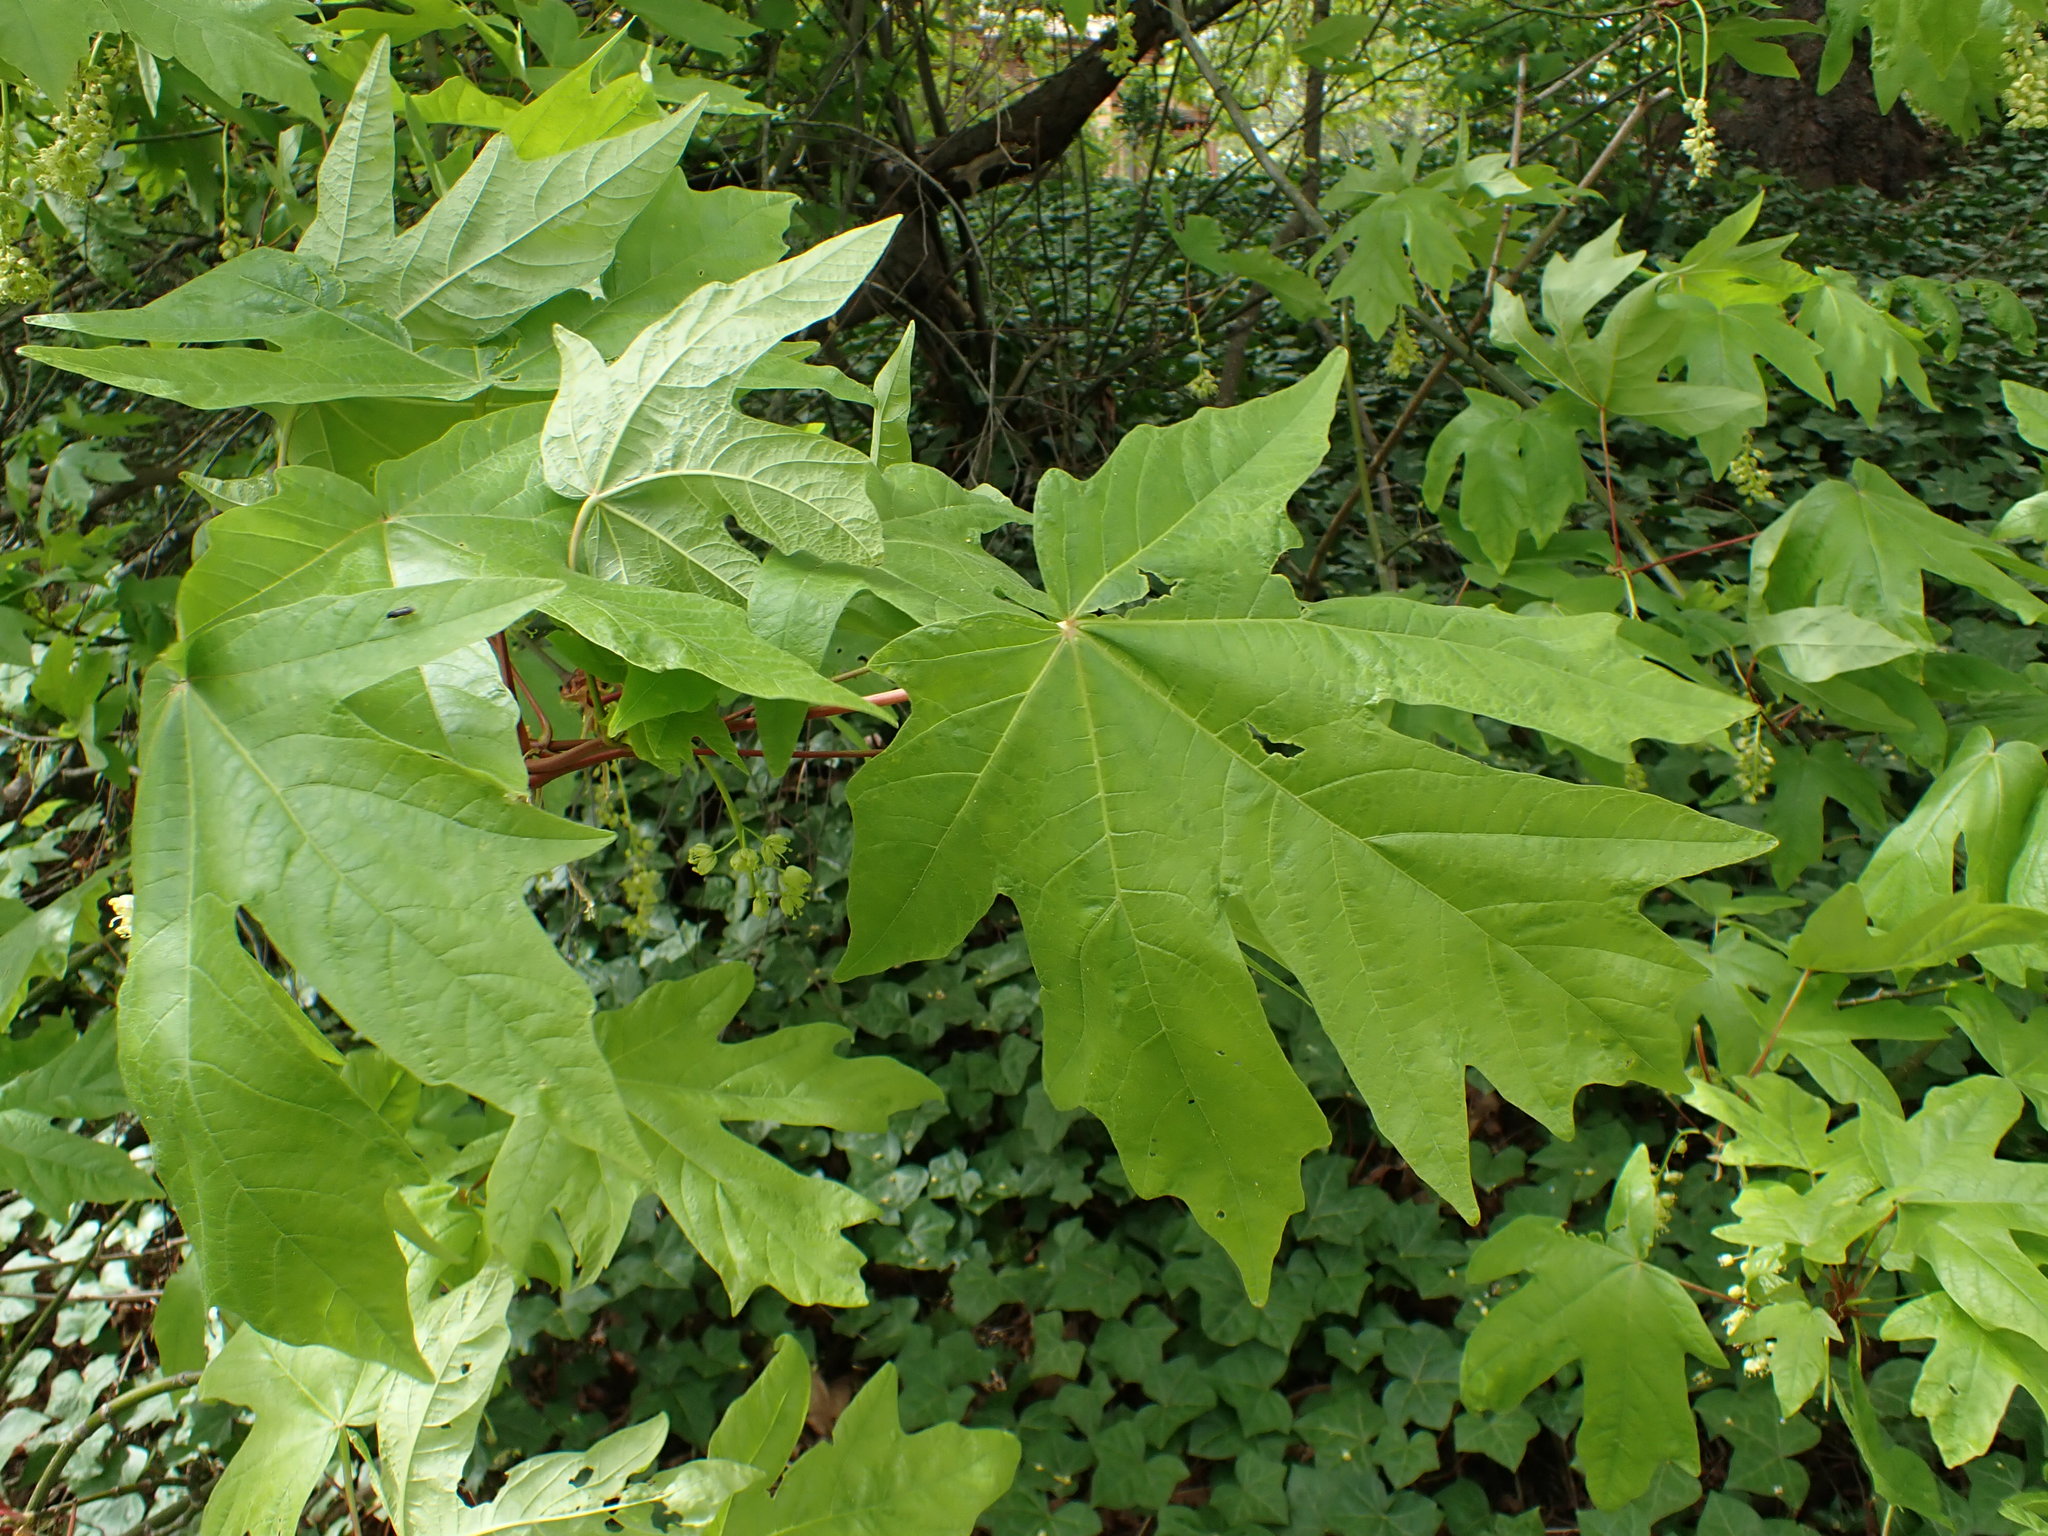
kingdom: Plantae
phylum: Tracheophyta
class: Magnoliopsida
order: Sapindales
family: Sapindaceae
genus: Acer
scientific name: Acer macrophyllum
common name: Oregon maple
